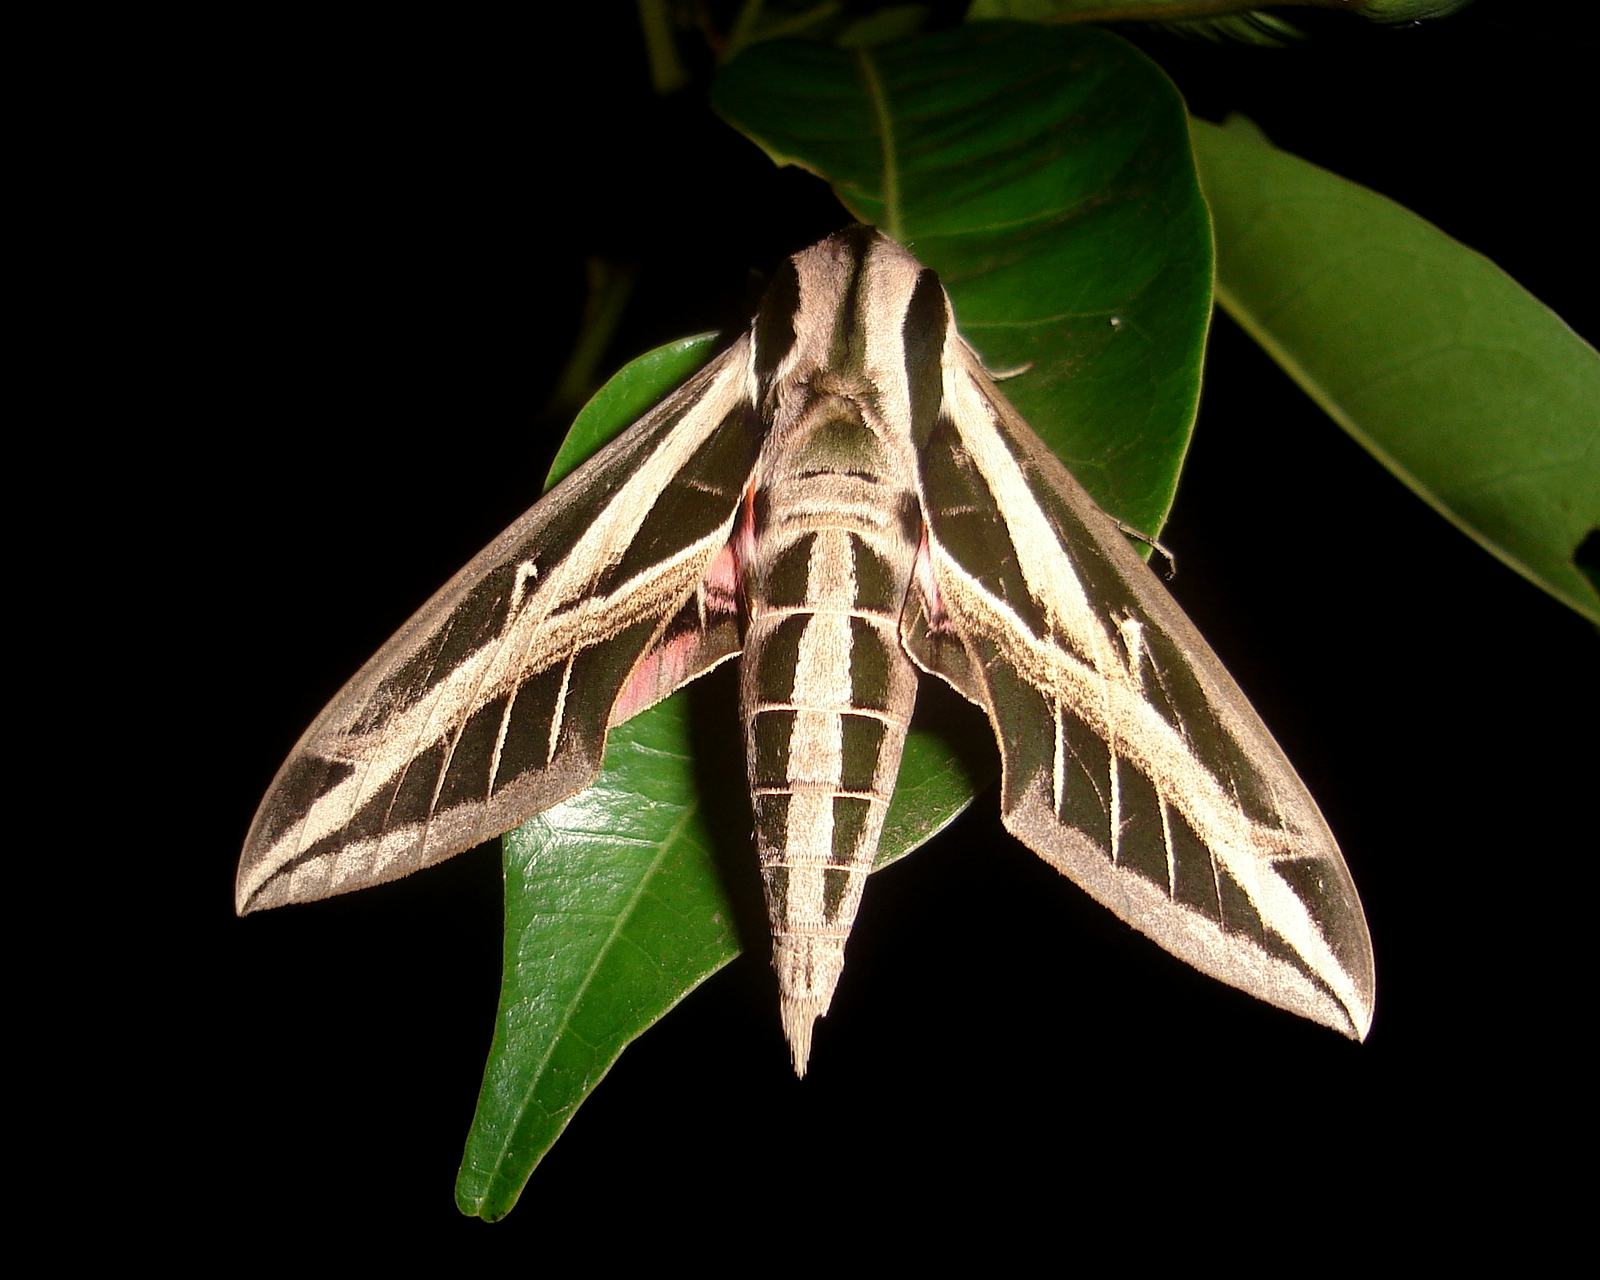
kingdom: Animalia
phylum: Arthropoda
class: Insecta
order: Lepidoptera
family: Sphingidae
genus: Eumorpha
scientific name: Eumorpha fasciatus
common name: Banded sphinx
